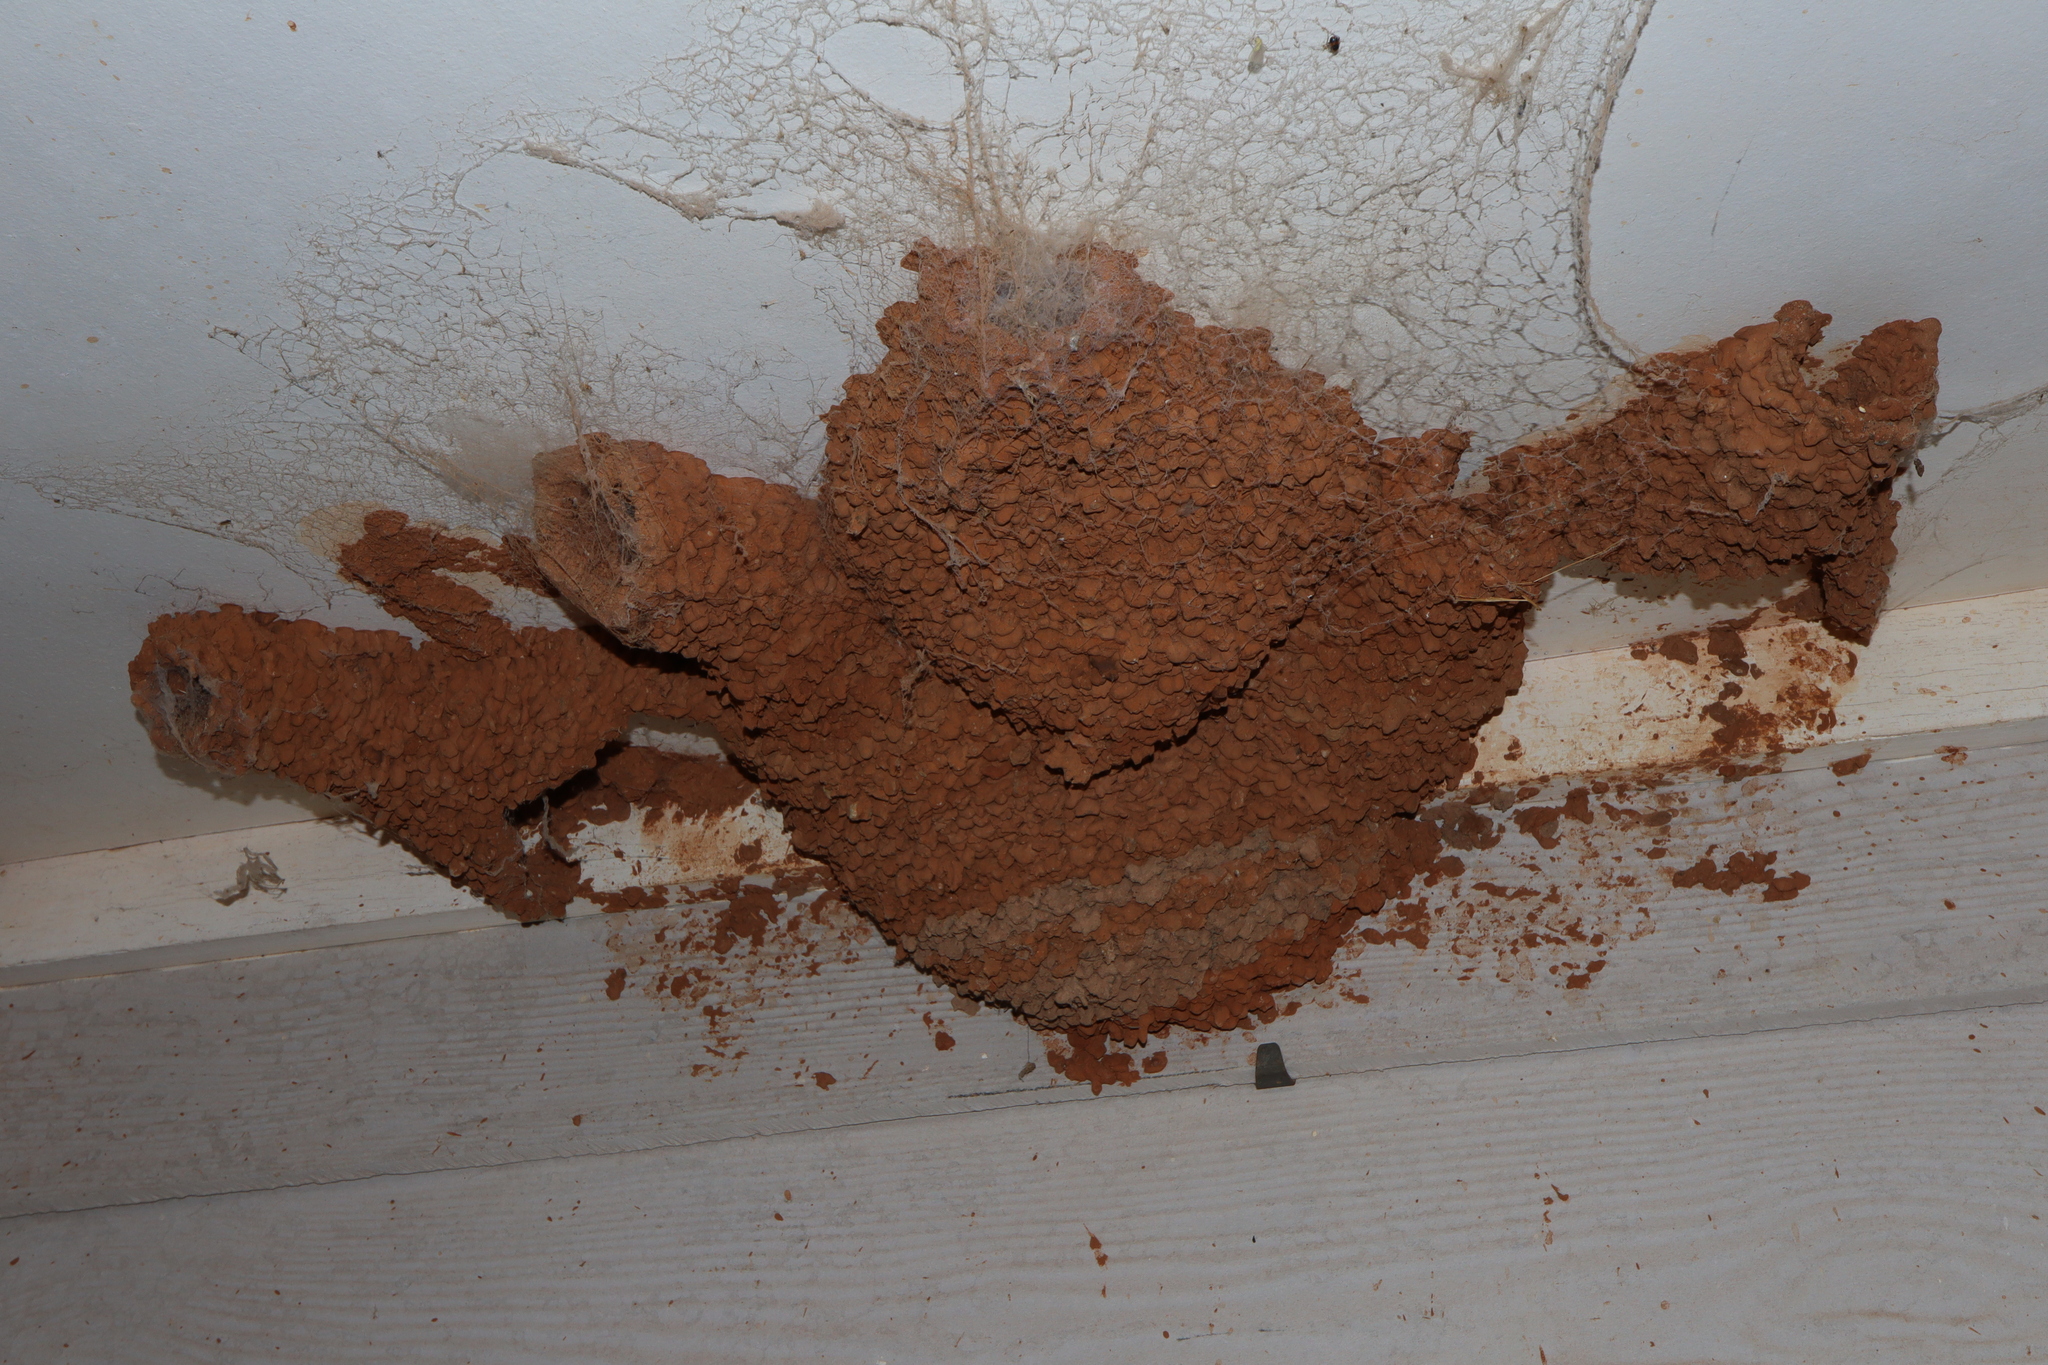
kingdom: Animalia
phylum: Chordata
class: Aves
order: Passeriformes
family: Hirundinidae
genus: Petrochelidon
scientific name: Petrochelidon ariel
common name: Fairy martin
